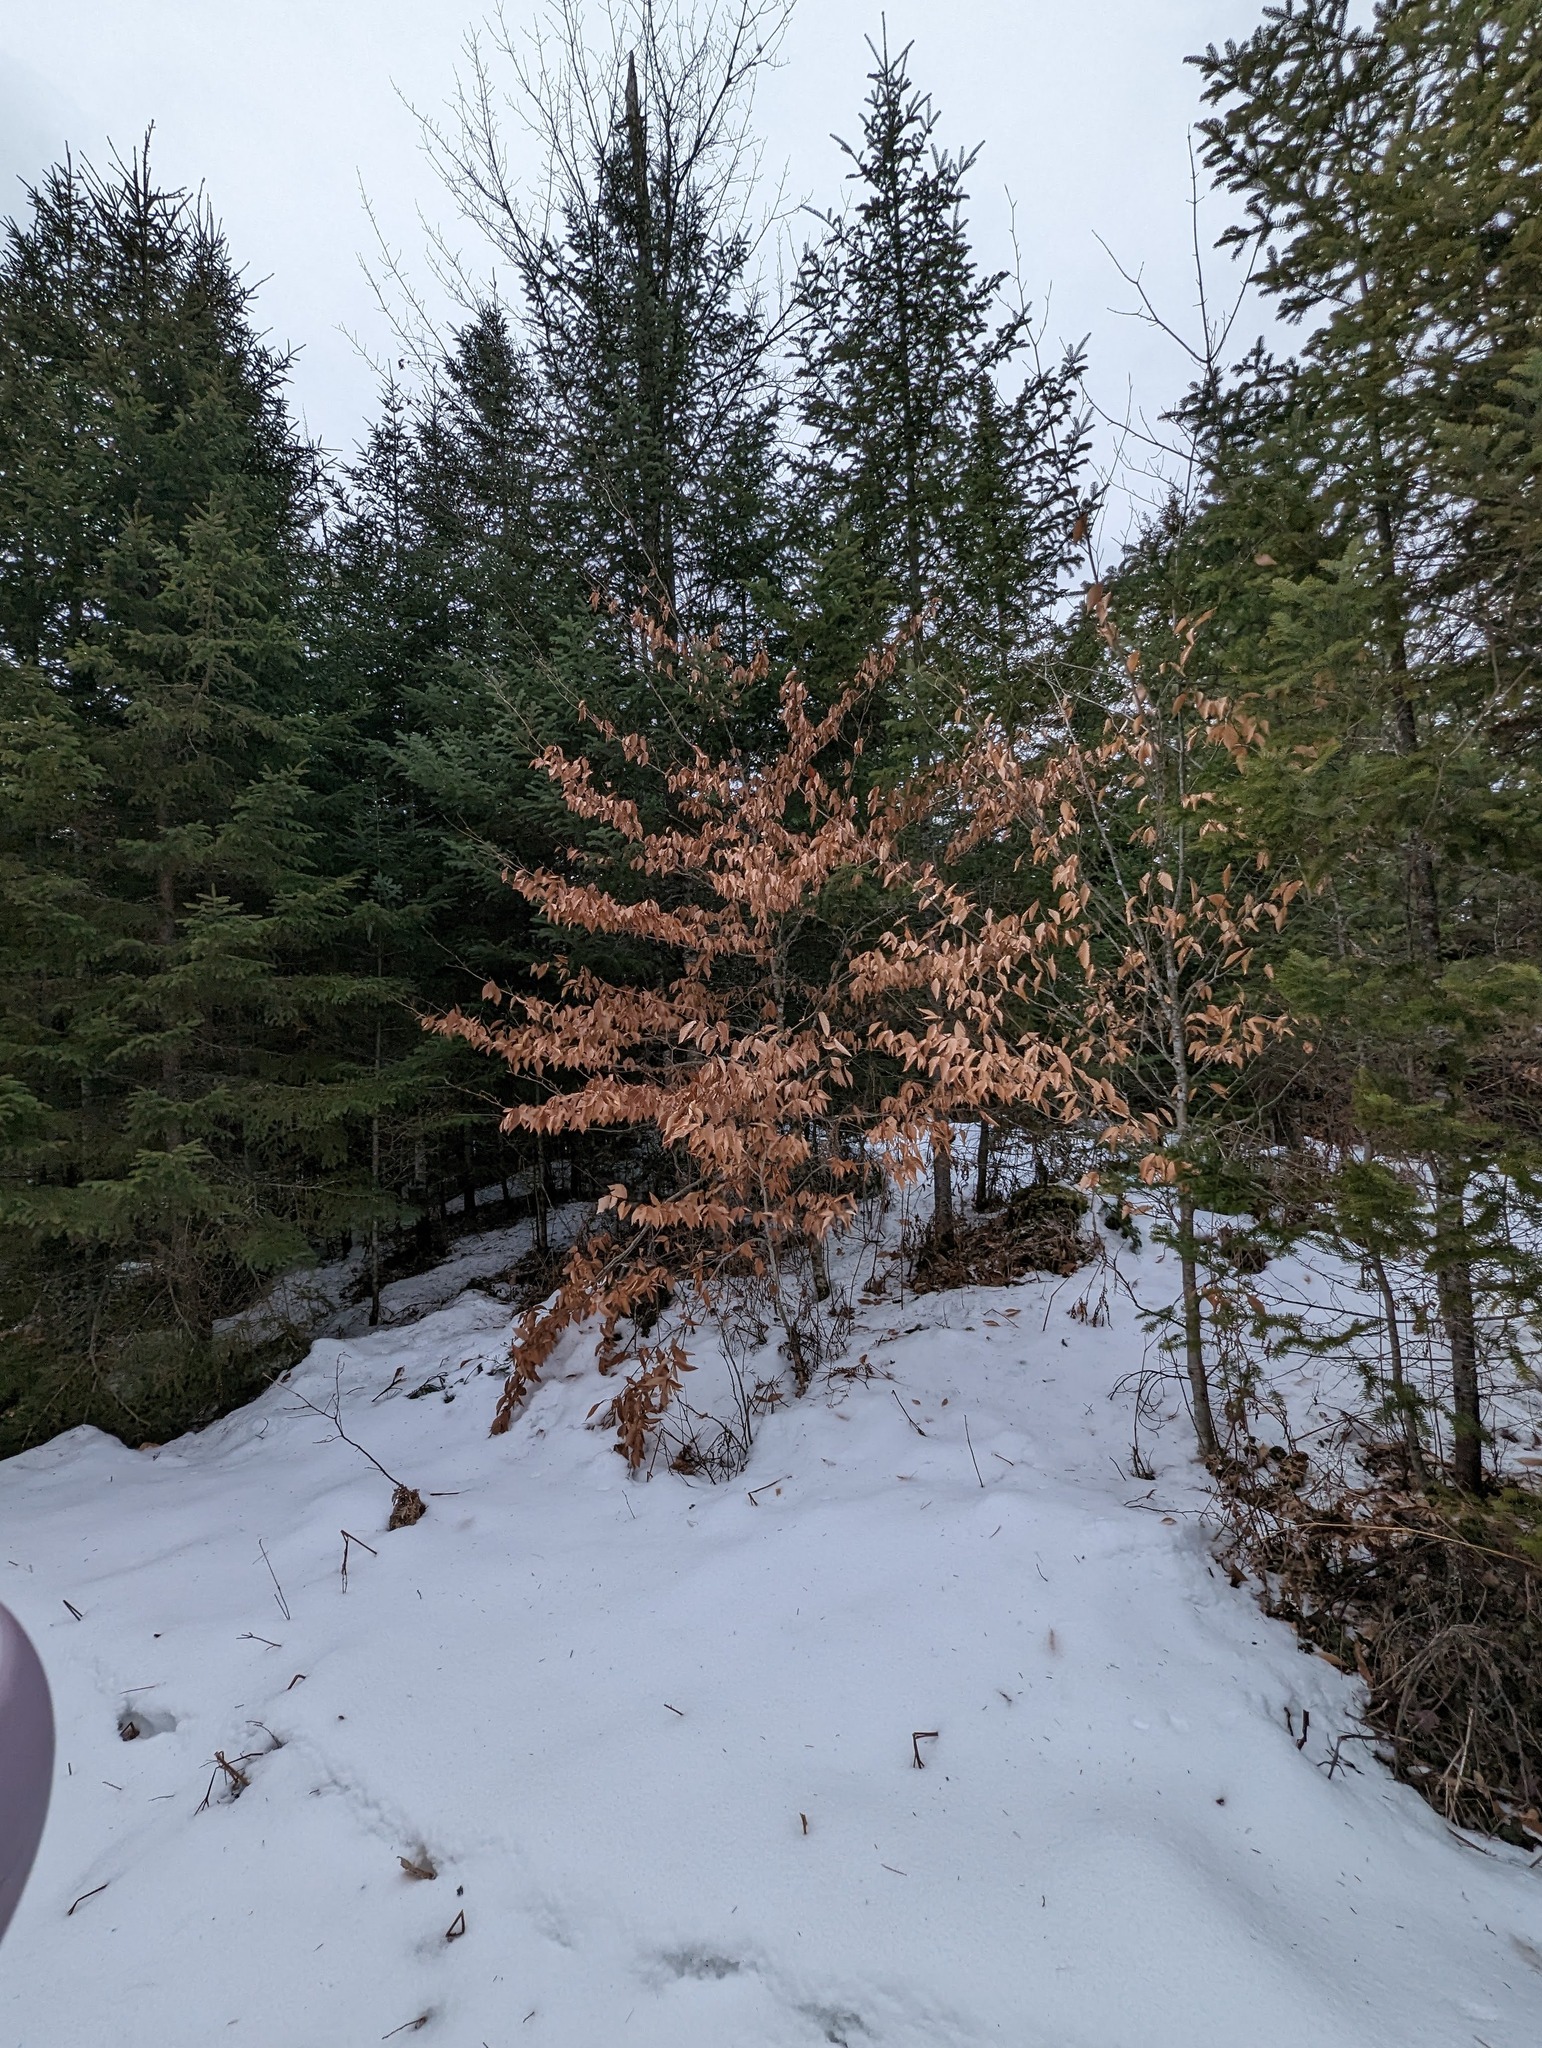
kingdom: Plantae
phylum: Tracheophyta
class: Magnoliopsida
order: Fagales
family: Fagaceae
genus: Fagus
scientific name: Fagus grandifolia
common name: American beech
